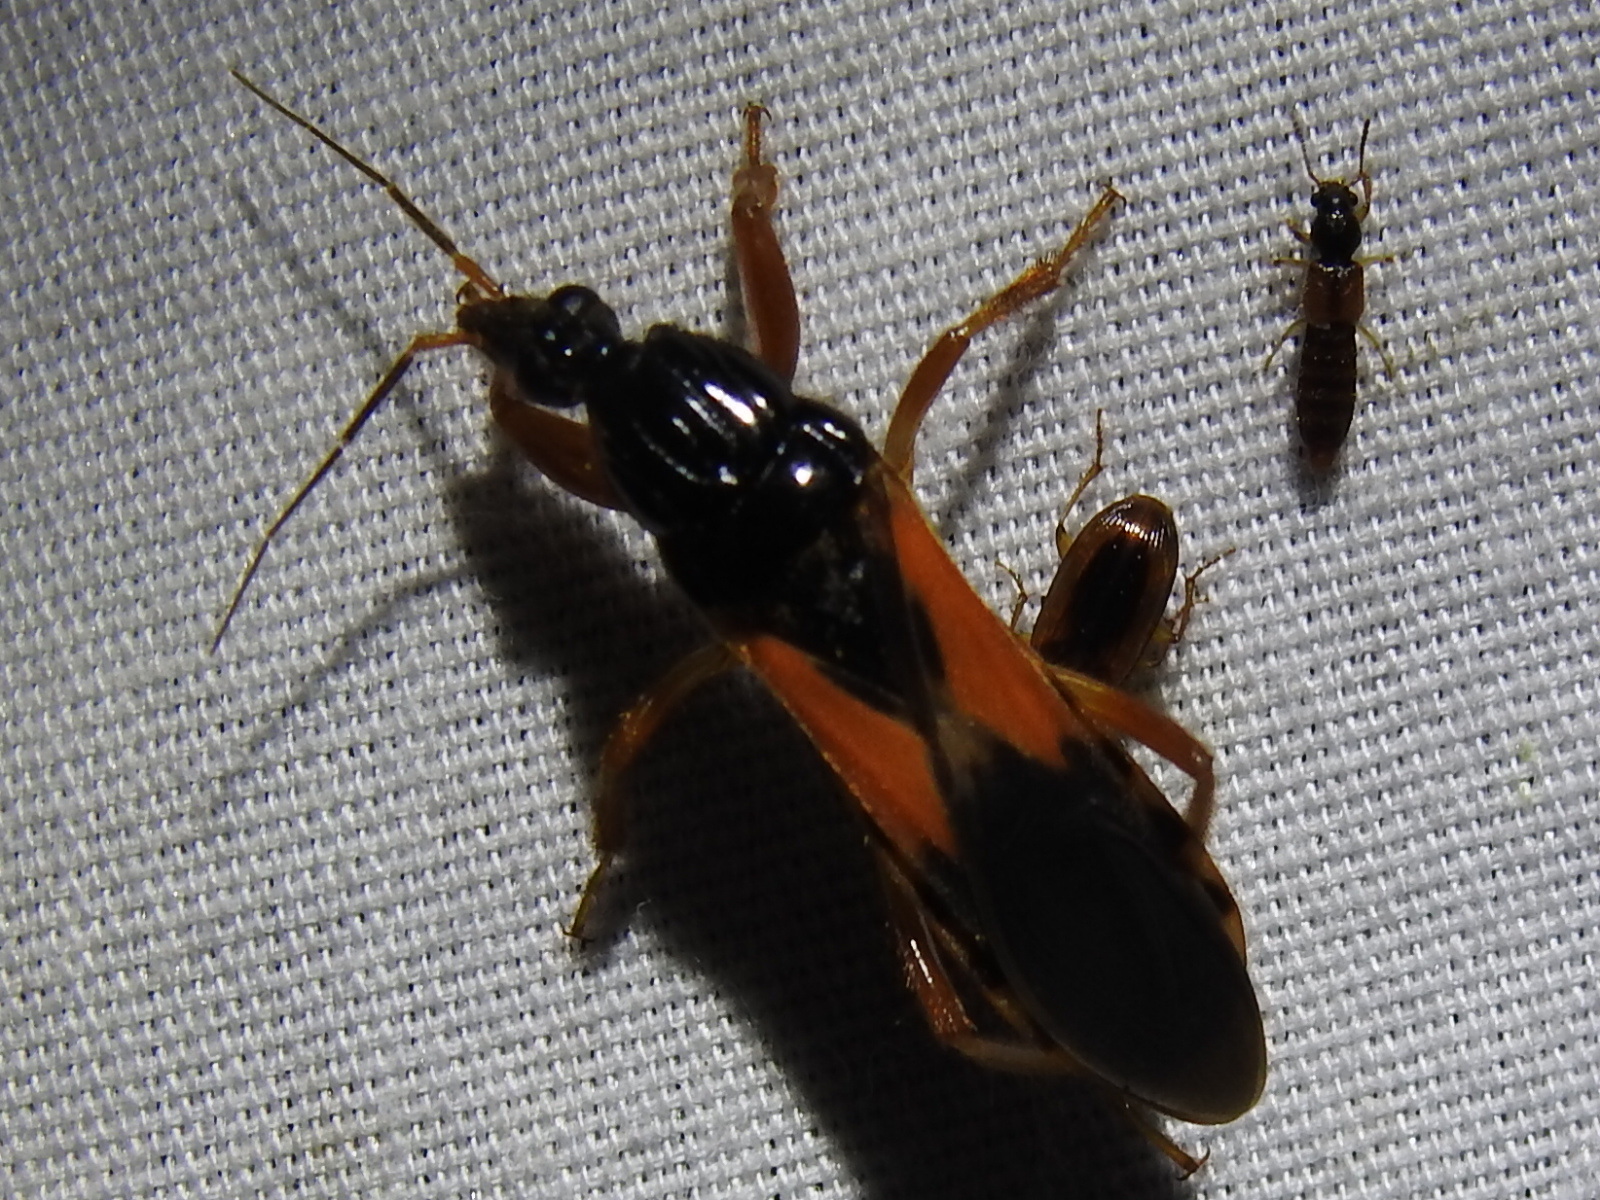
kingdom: Animalia
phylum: Arthropoda
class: Insecta
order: Hemiptera
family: Reduviidae
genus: Sirthenea
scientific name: Sirthenea stria
